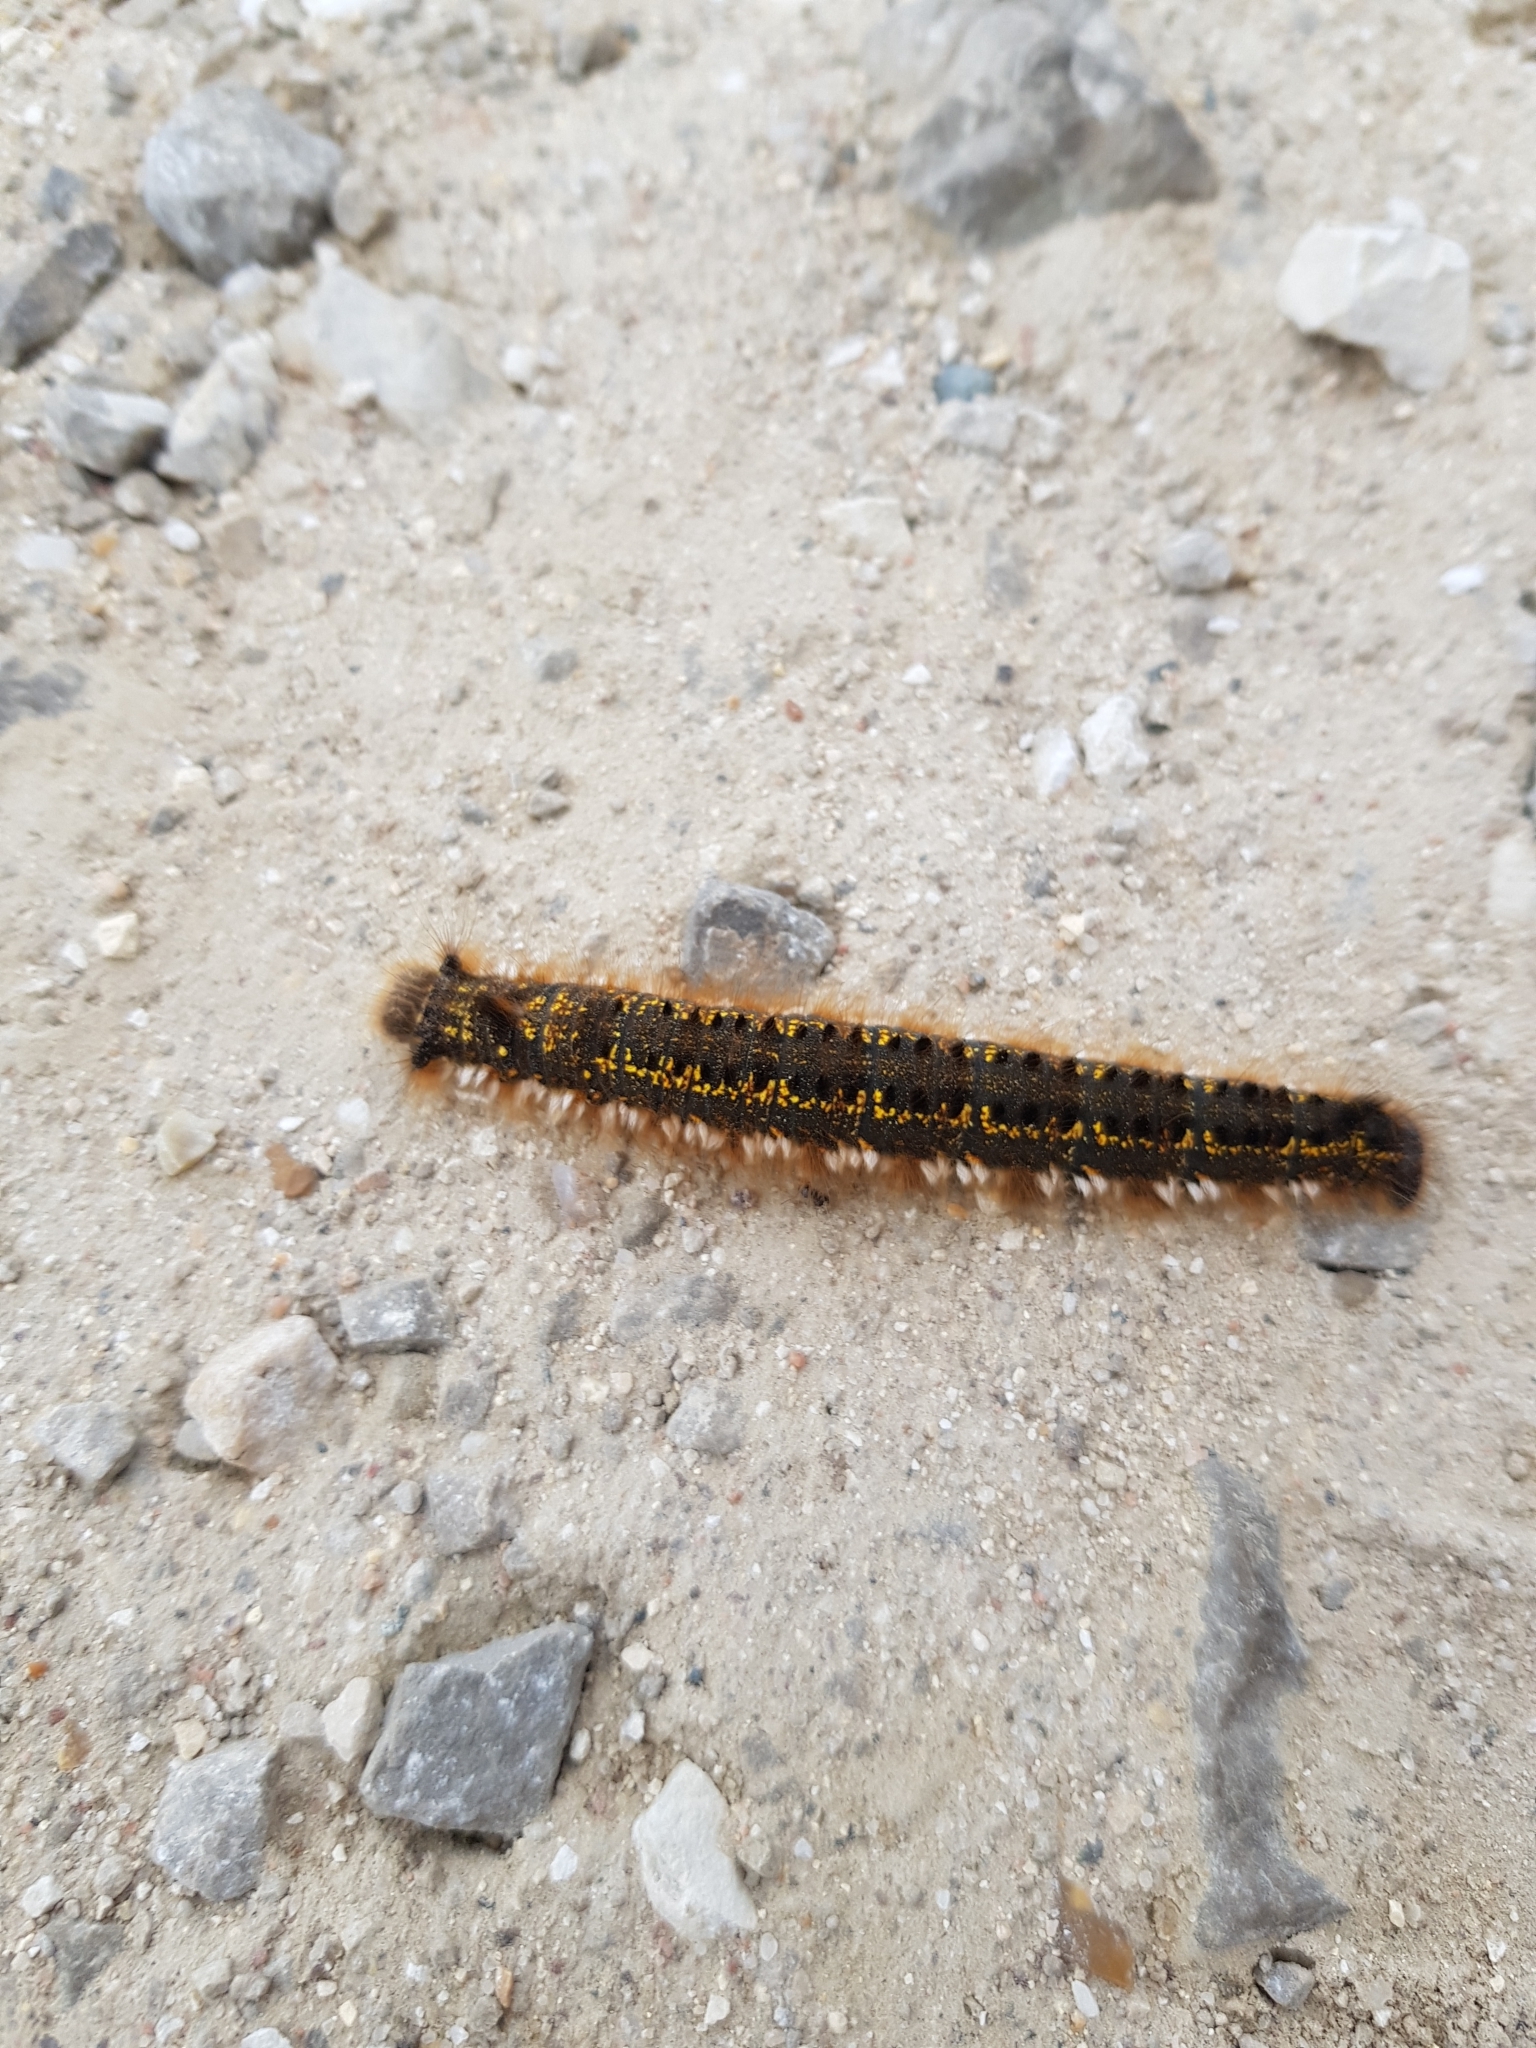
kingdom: Animalia
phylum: Arthropoda
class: Insecta
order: Lepidoptera
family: Lasiocampidae
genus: Euthrix
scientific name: Euthrix potatoria
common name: Drinker
